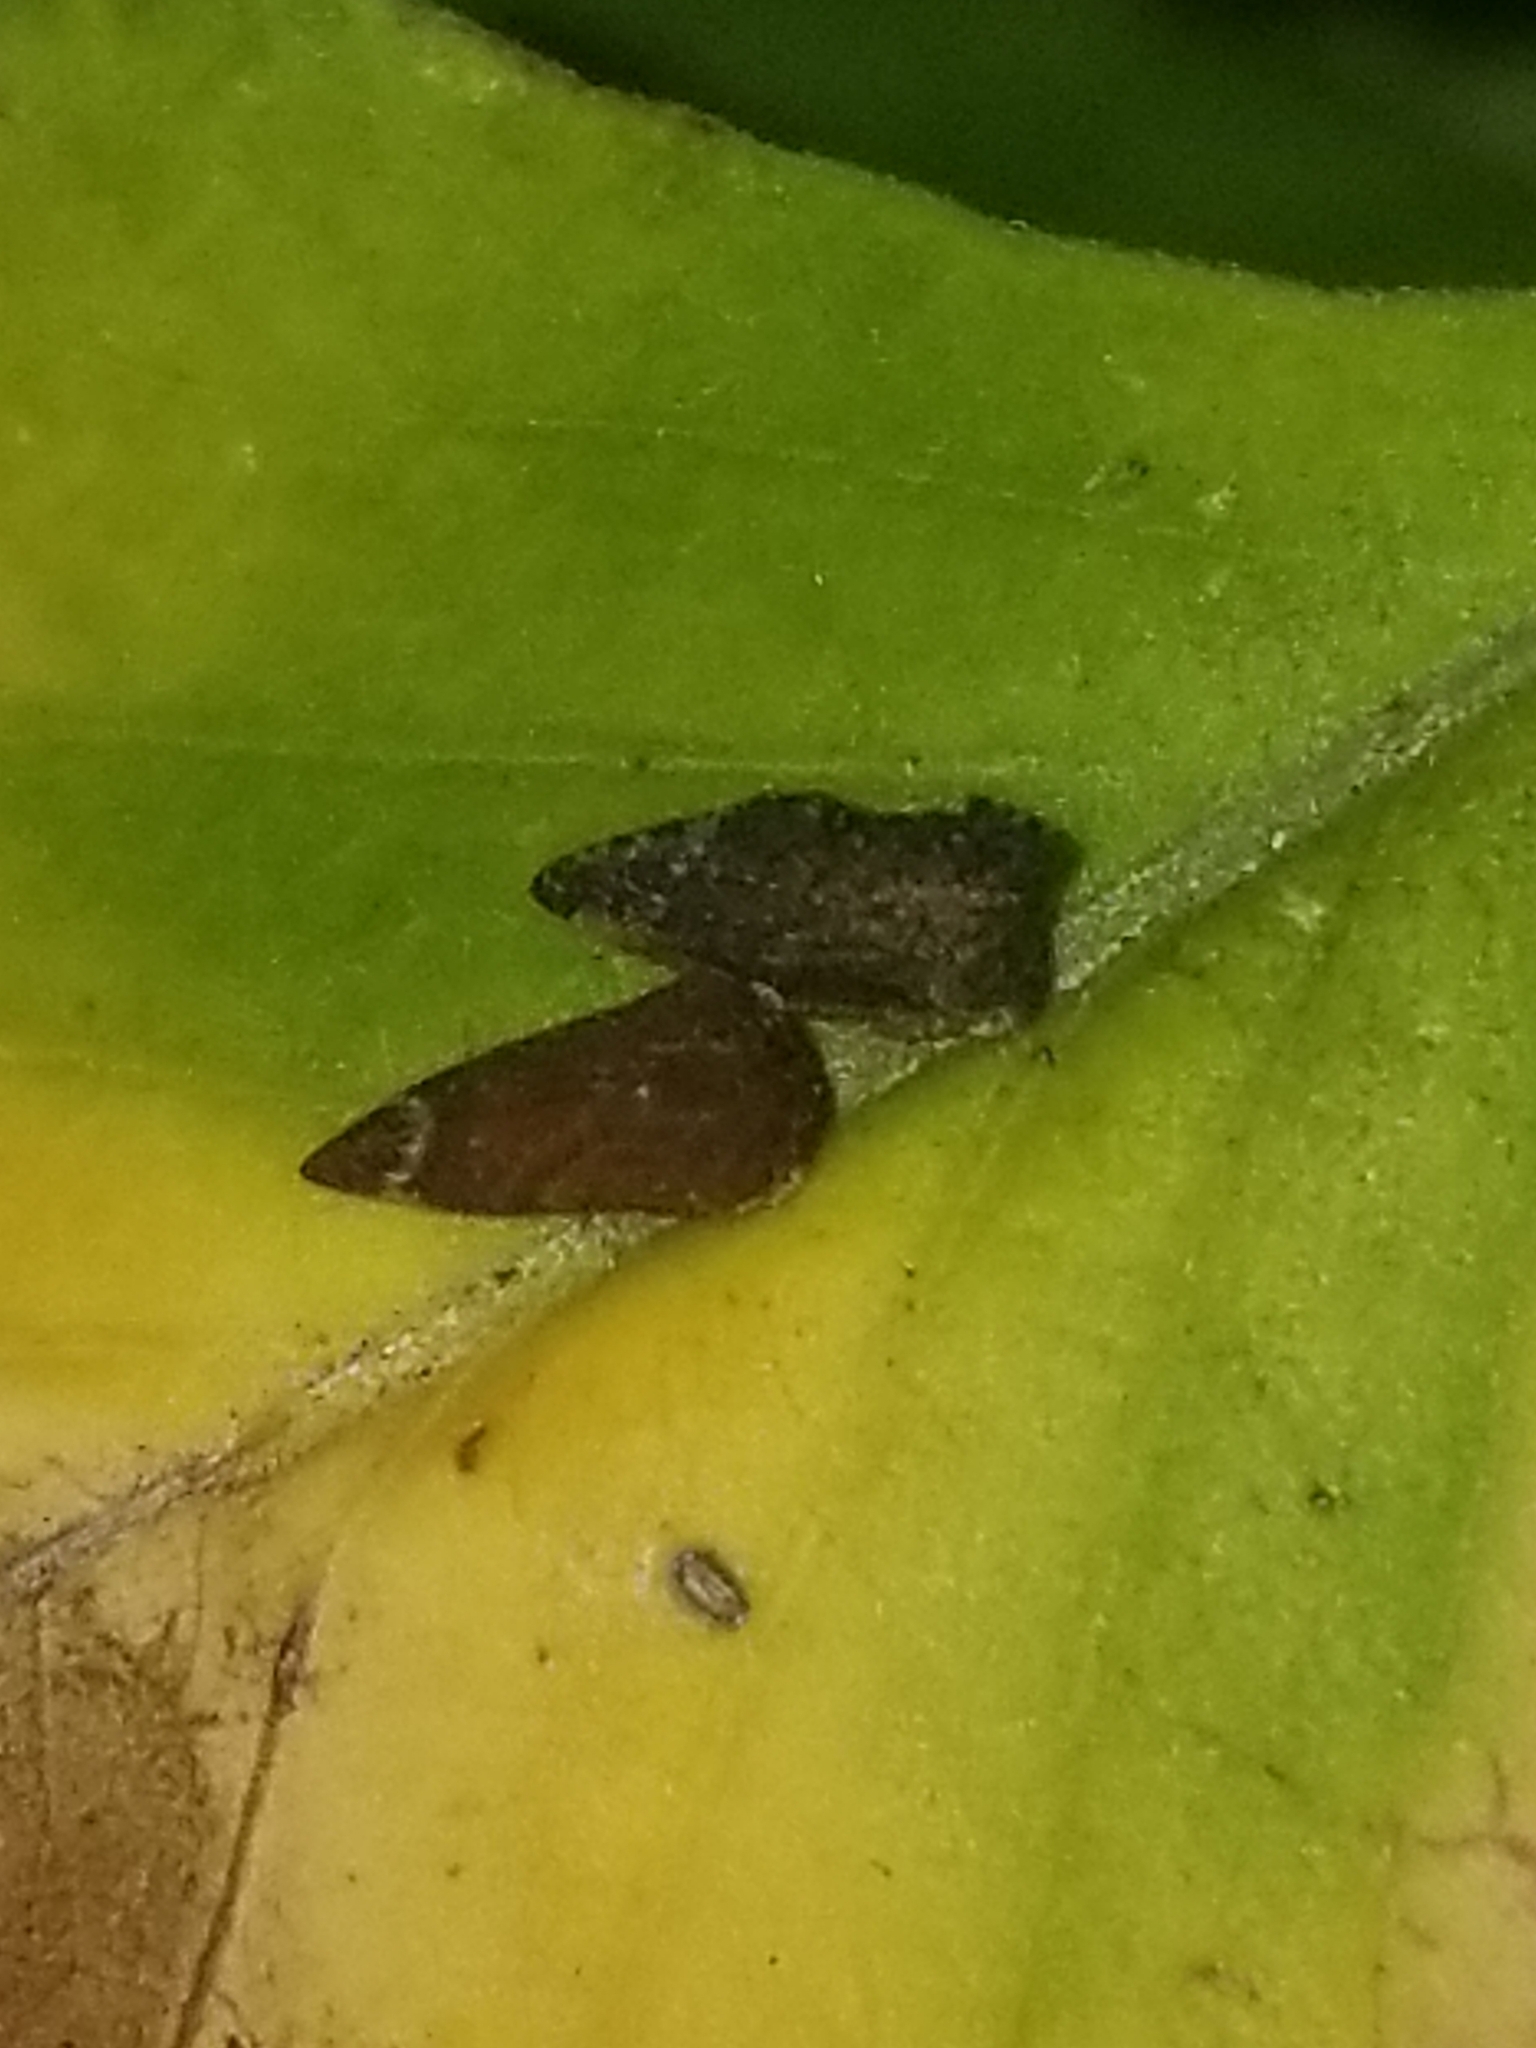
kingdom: Animalia
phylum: Arthropoda
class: Insecta
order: Hemiptera
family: Membracidae
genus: Entylia
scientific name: Entylia carinata
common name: Keeled treehopper
